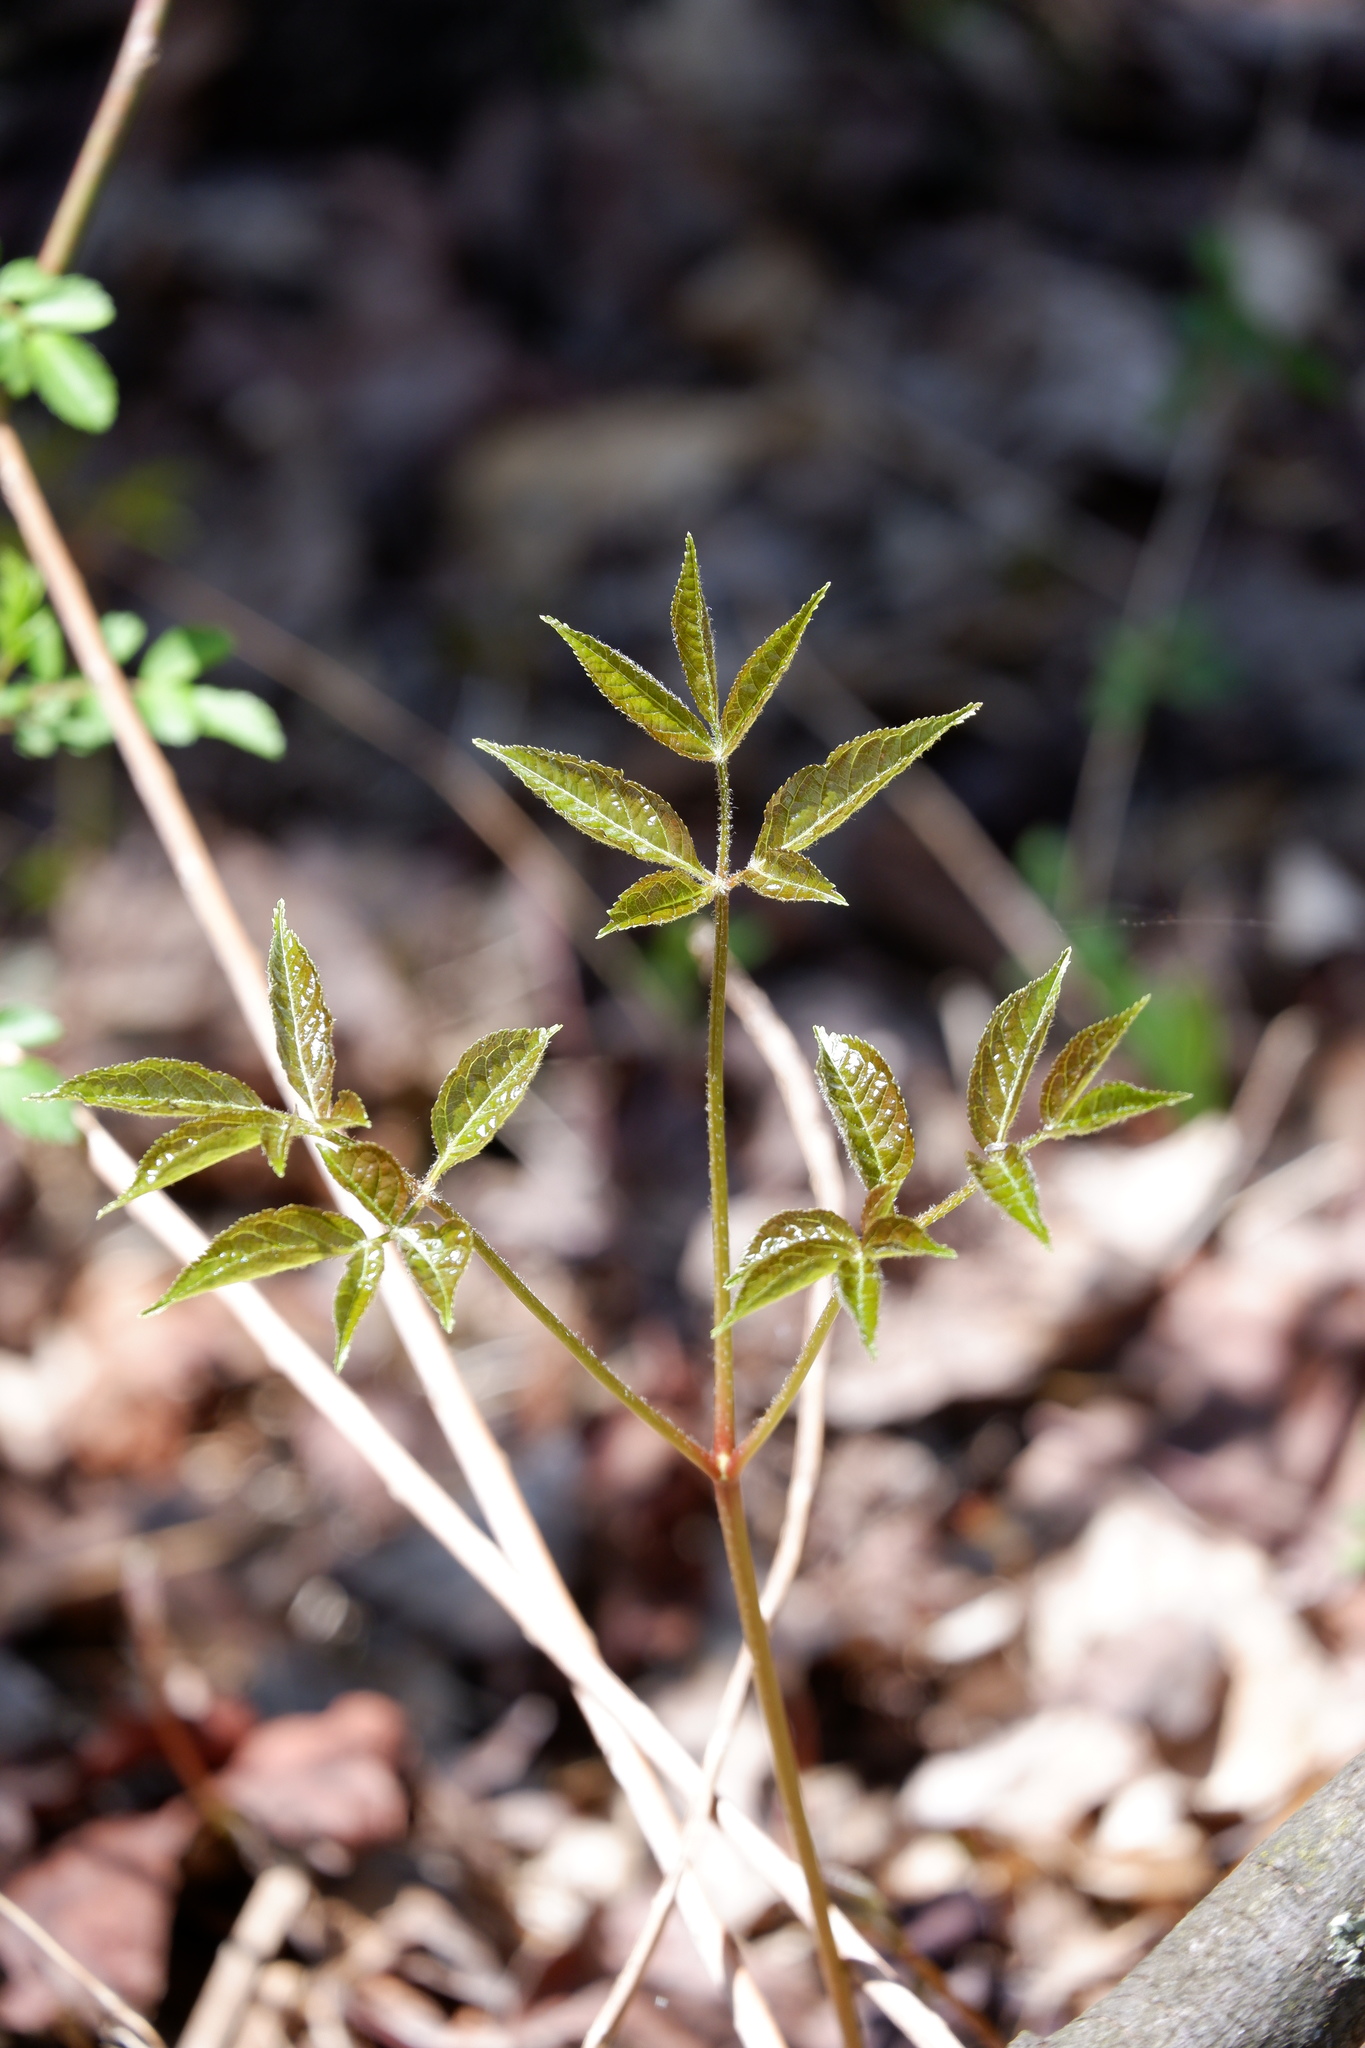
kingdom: Plantae
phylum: Tracheophyta
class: Magnoliopsida
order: Apiales
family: Araliaceae
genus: Aralia
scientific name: Aralia nudicaulis
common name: Wild sarsaparilla
